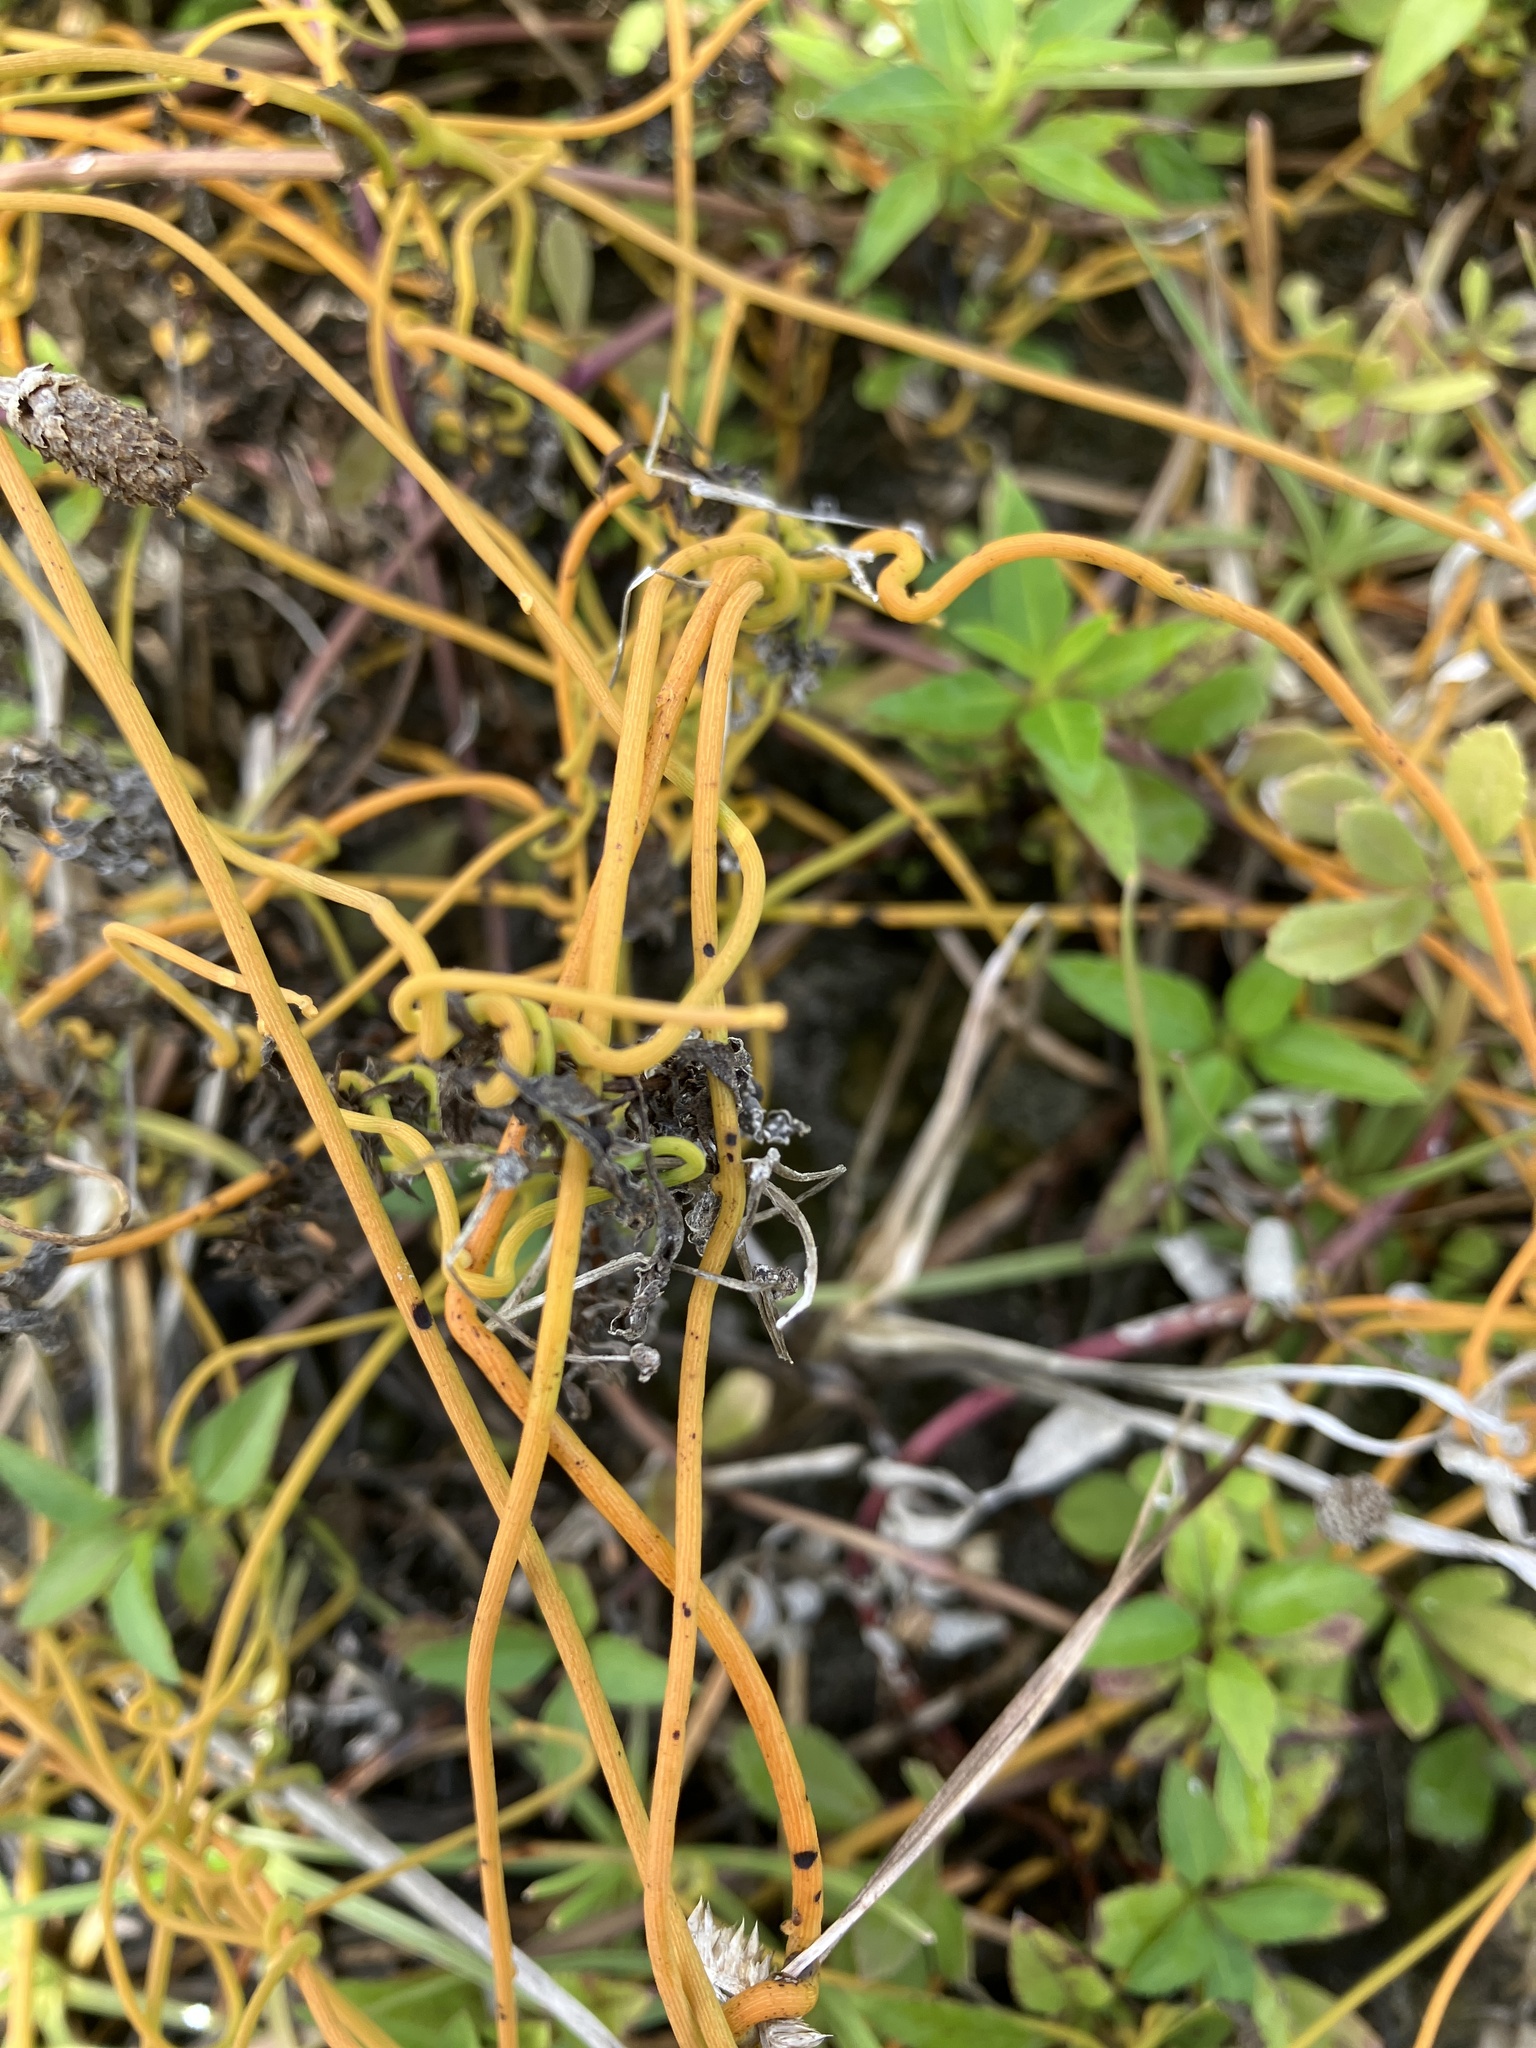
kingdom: Plantae
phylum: Tracheophyta
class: Magnoliopsida
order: Laurales
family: Lauraceae
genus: Cassytha
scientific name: Cassytha filiformis
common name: Dodder-laurel
